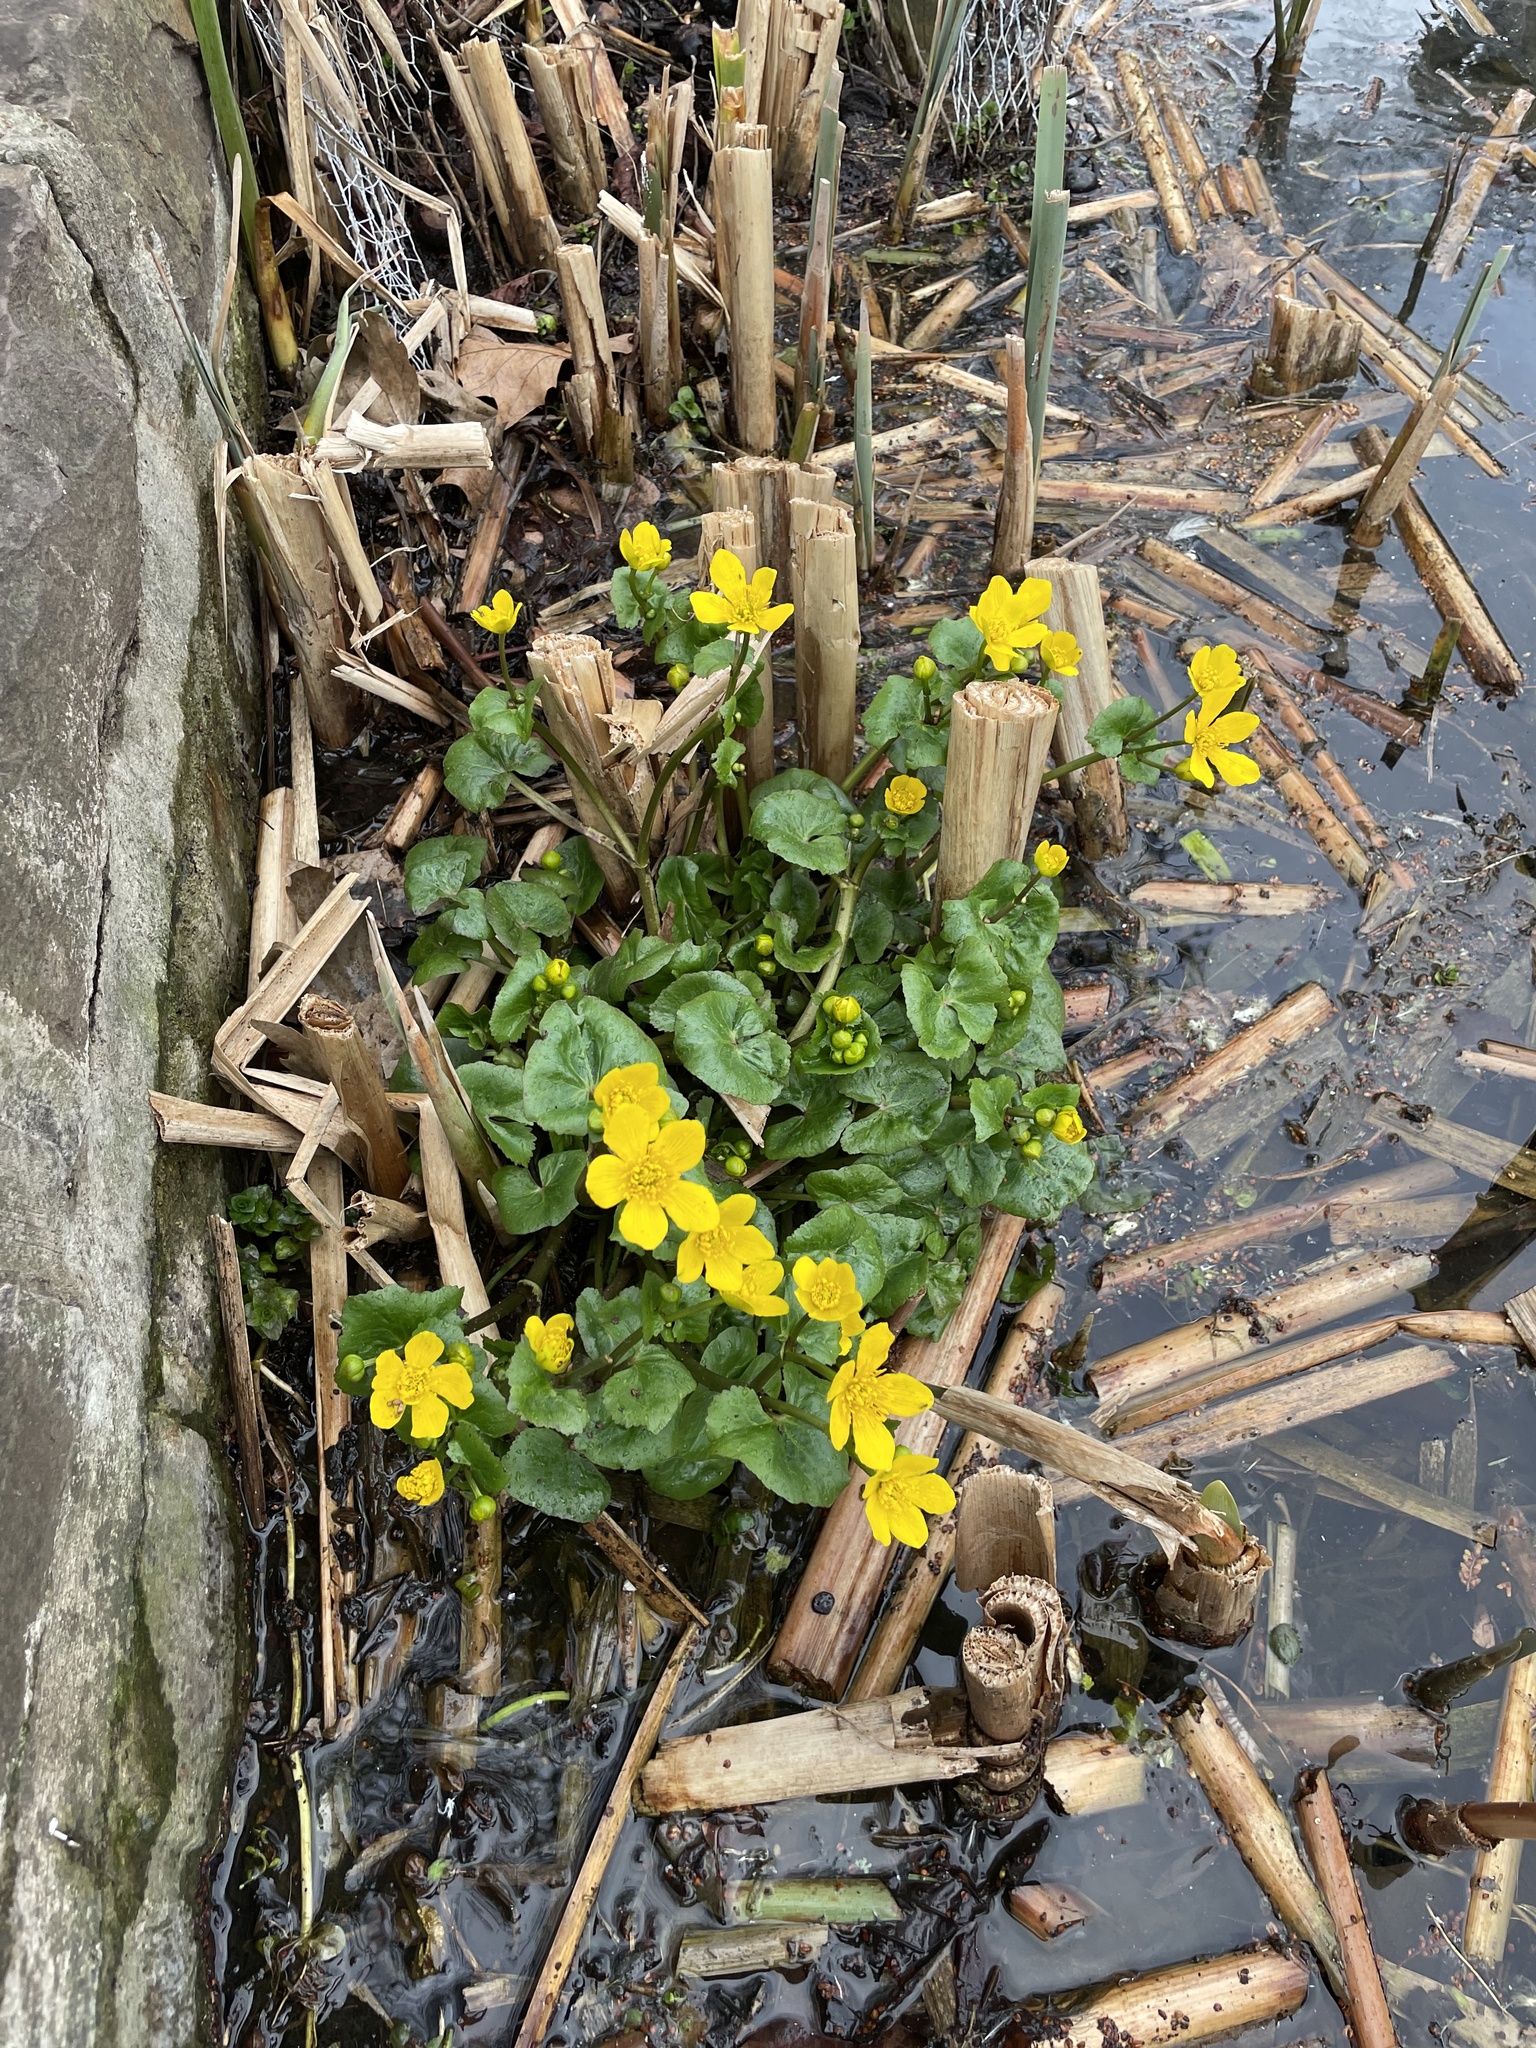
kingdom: Plantae
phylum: Tracheophyta
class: Magnoliopsida
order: Ranunculales
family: Ranunculaceae
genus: Caltha
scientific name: Caltha palustris
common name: Marsh marigold
